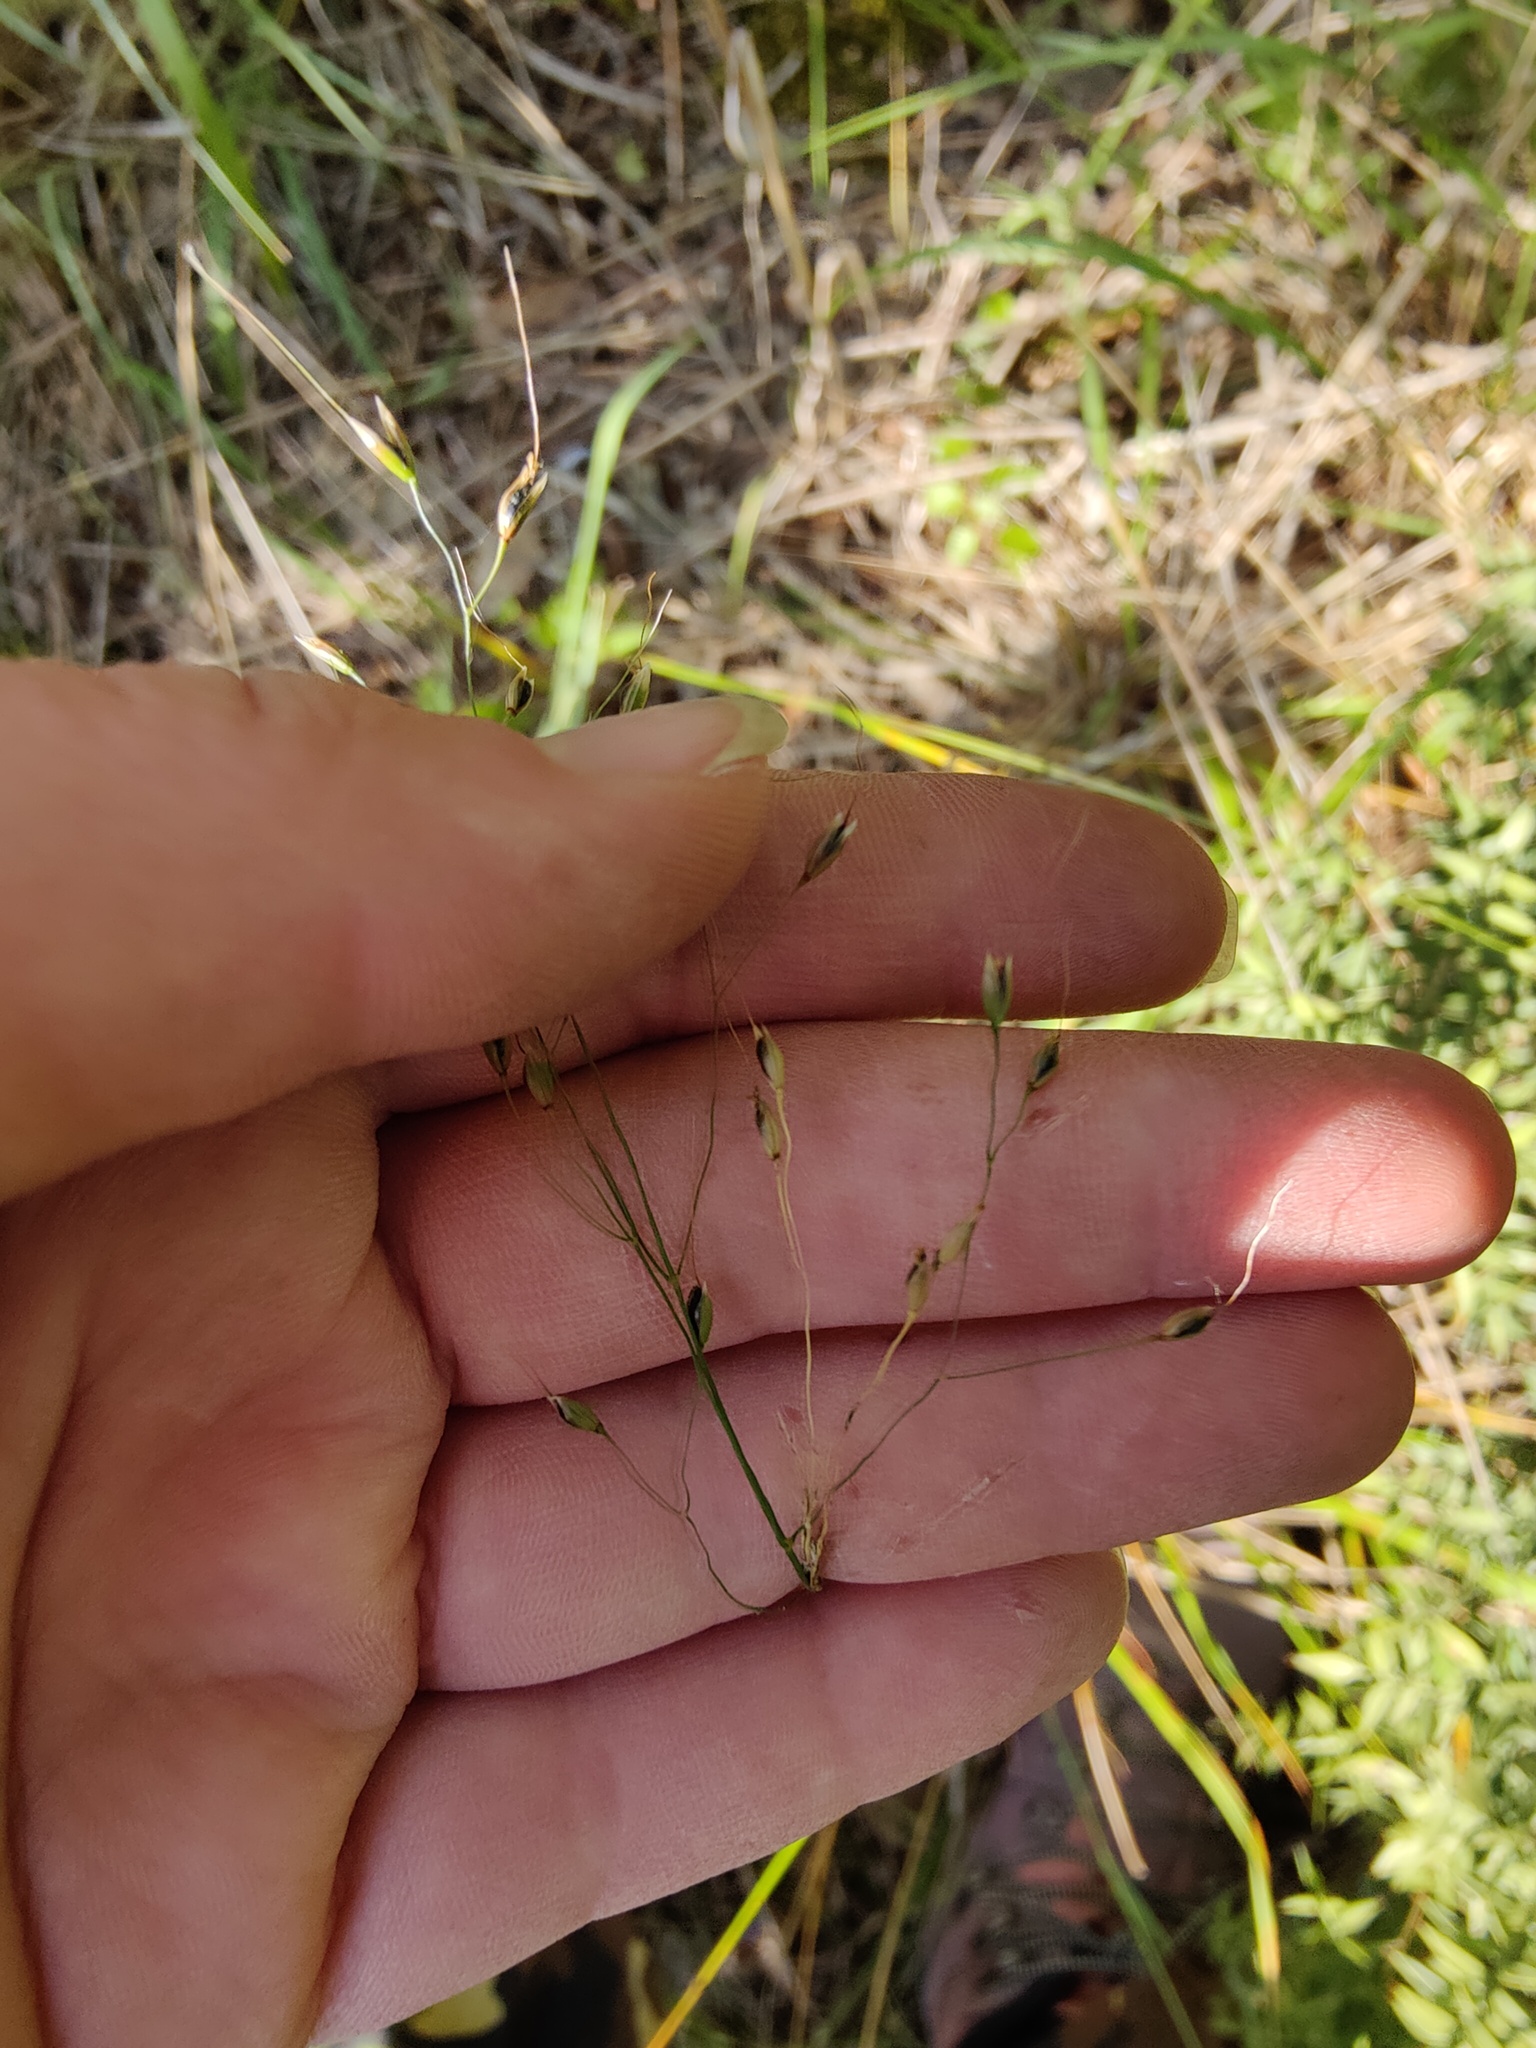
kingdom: Plantae
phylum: Tracheophyta
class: Liliopsida
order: Poales
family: Poaceae
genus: Piptatherum
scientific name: Piptatherum holciforme
